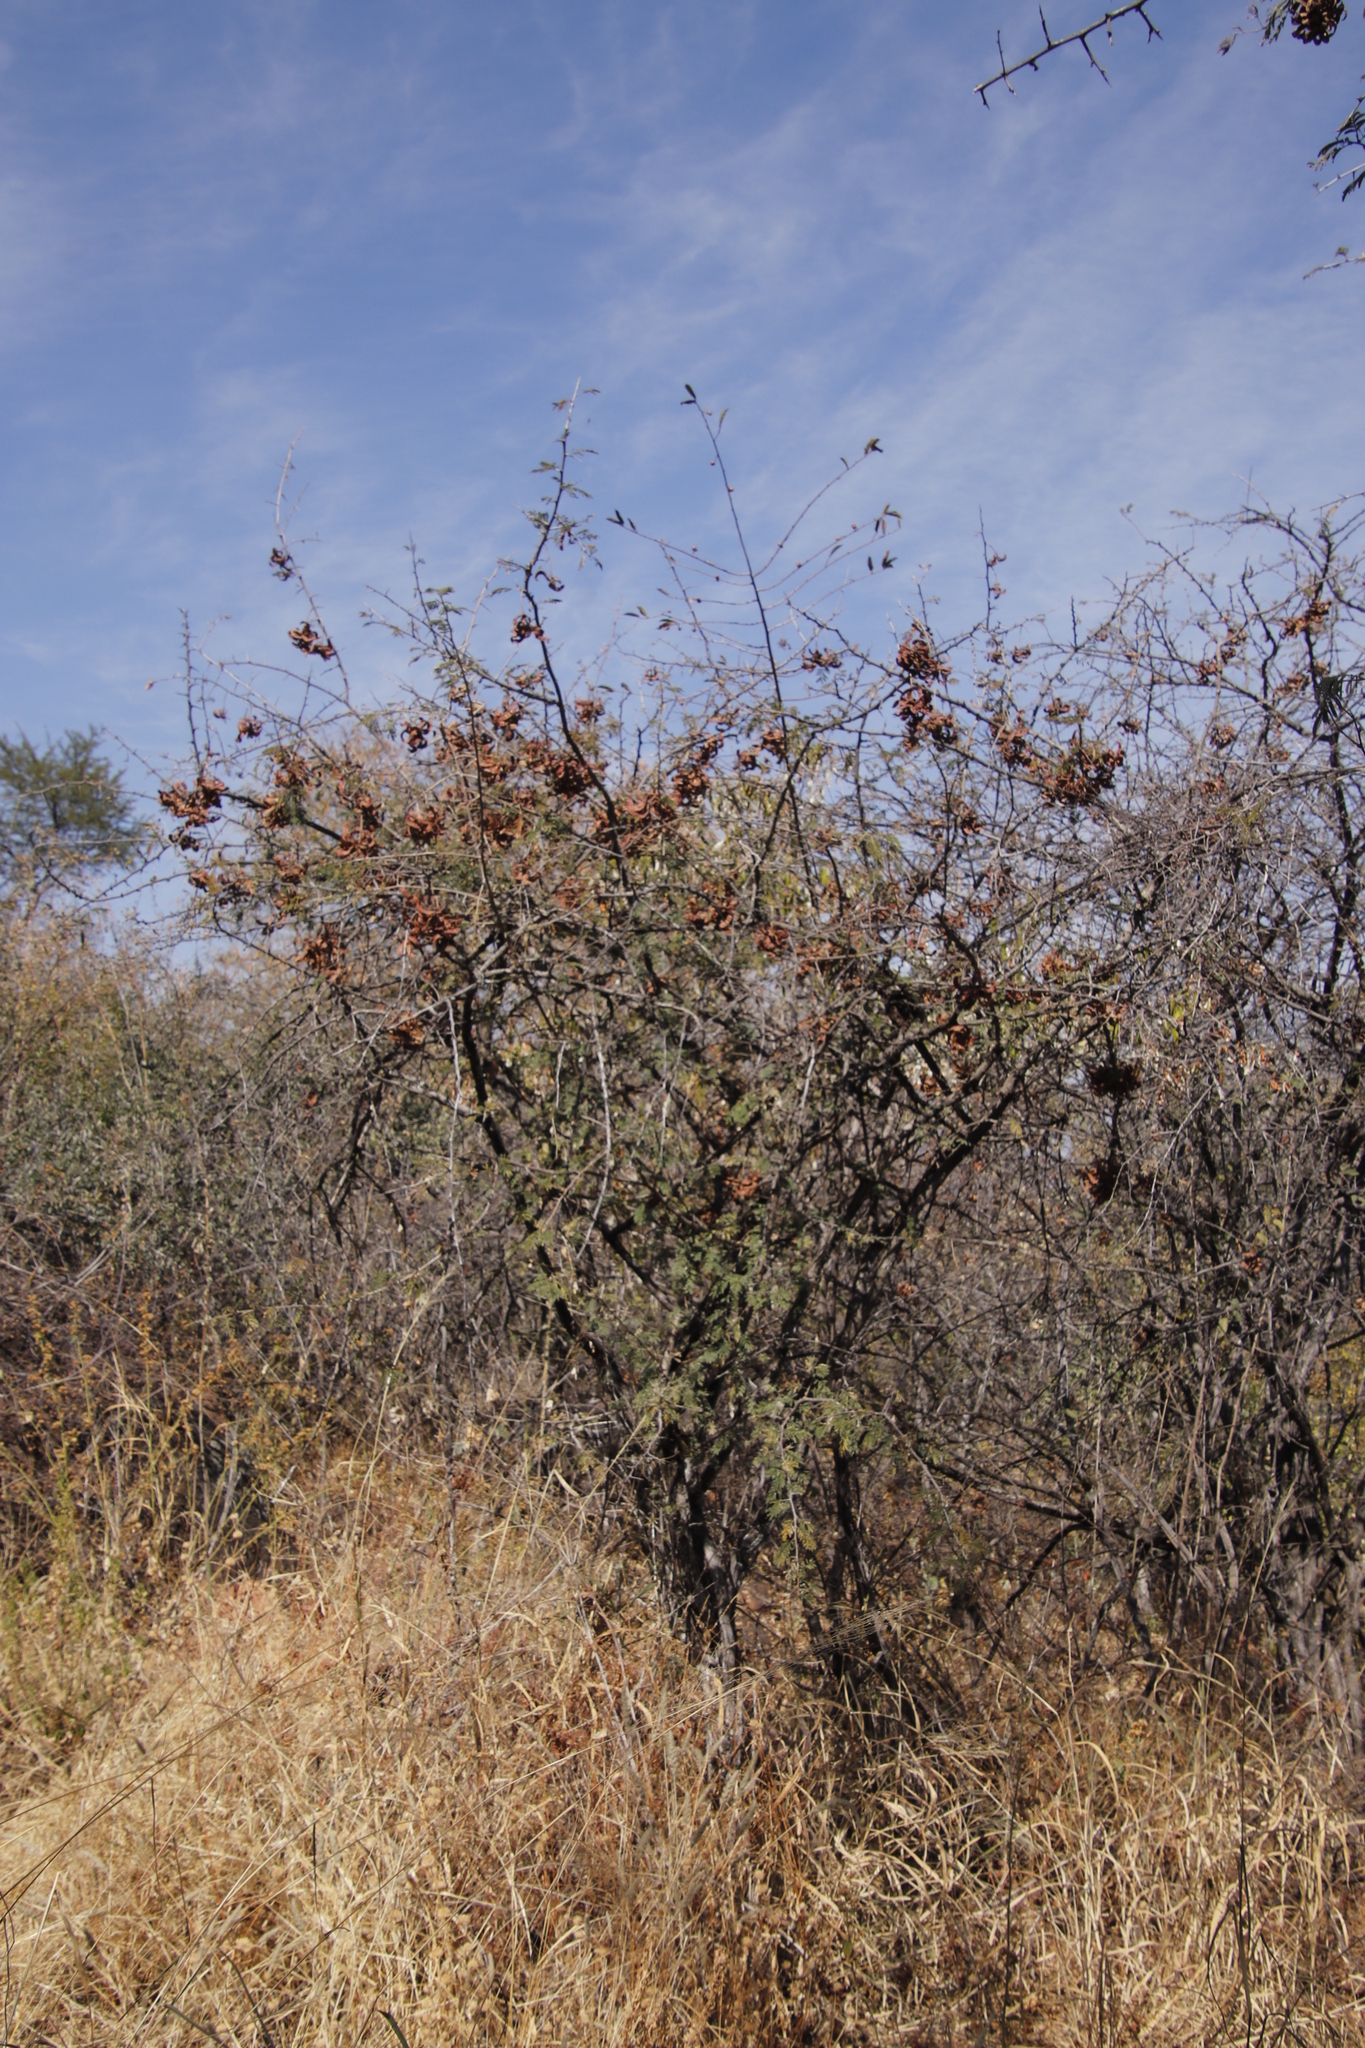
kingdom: Plantae
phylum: Tracheophyta
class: Magnoliopsida
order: Fabales
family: Fabaceae
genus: Dichrostachys
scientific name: Dichrostachys cinerea
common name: Sicklebush
